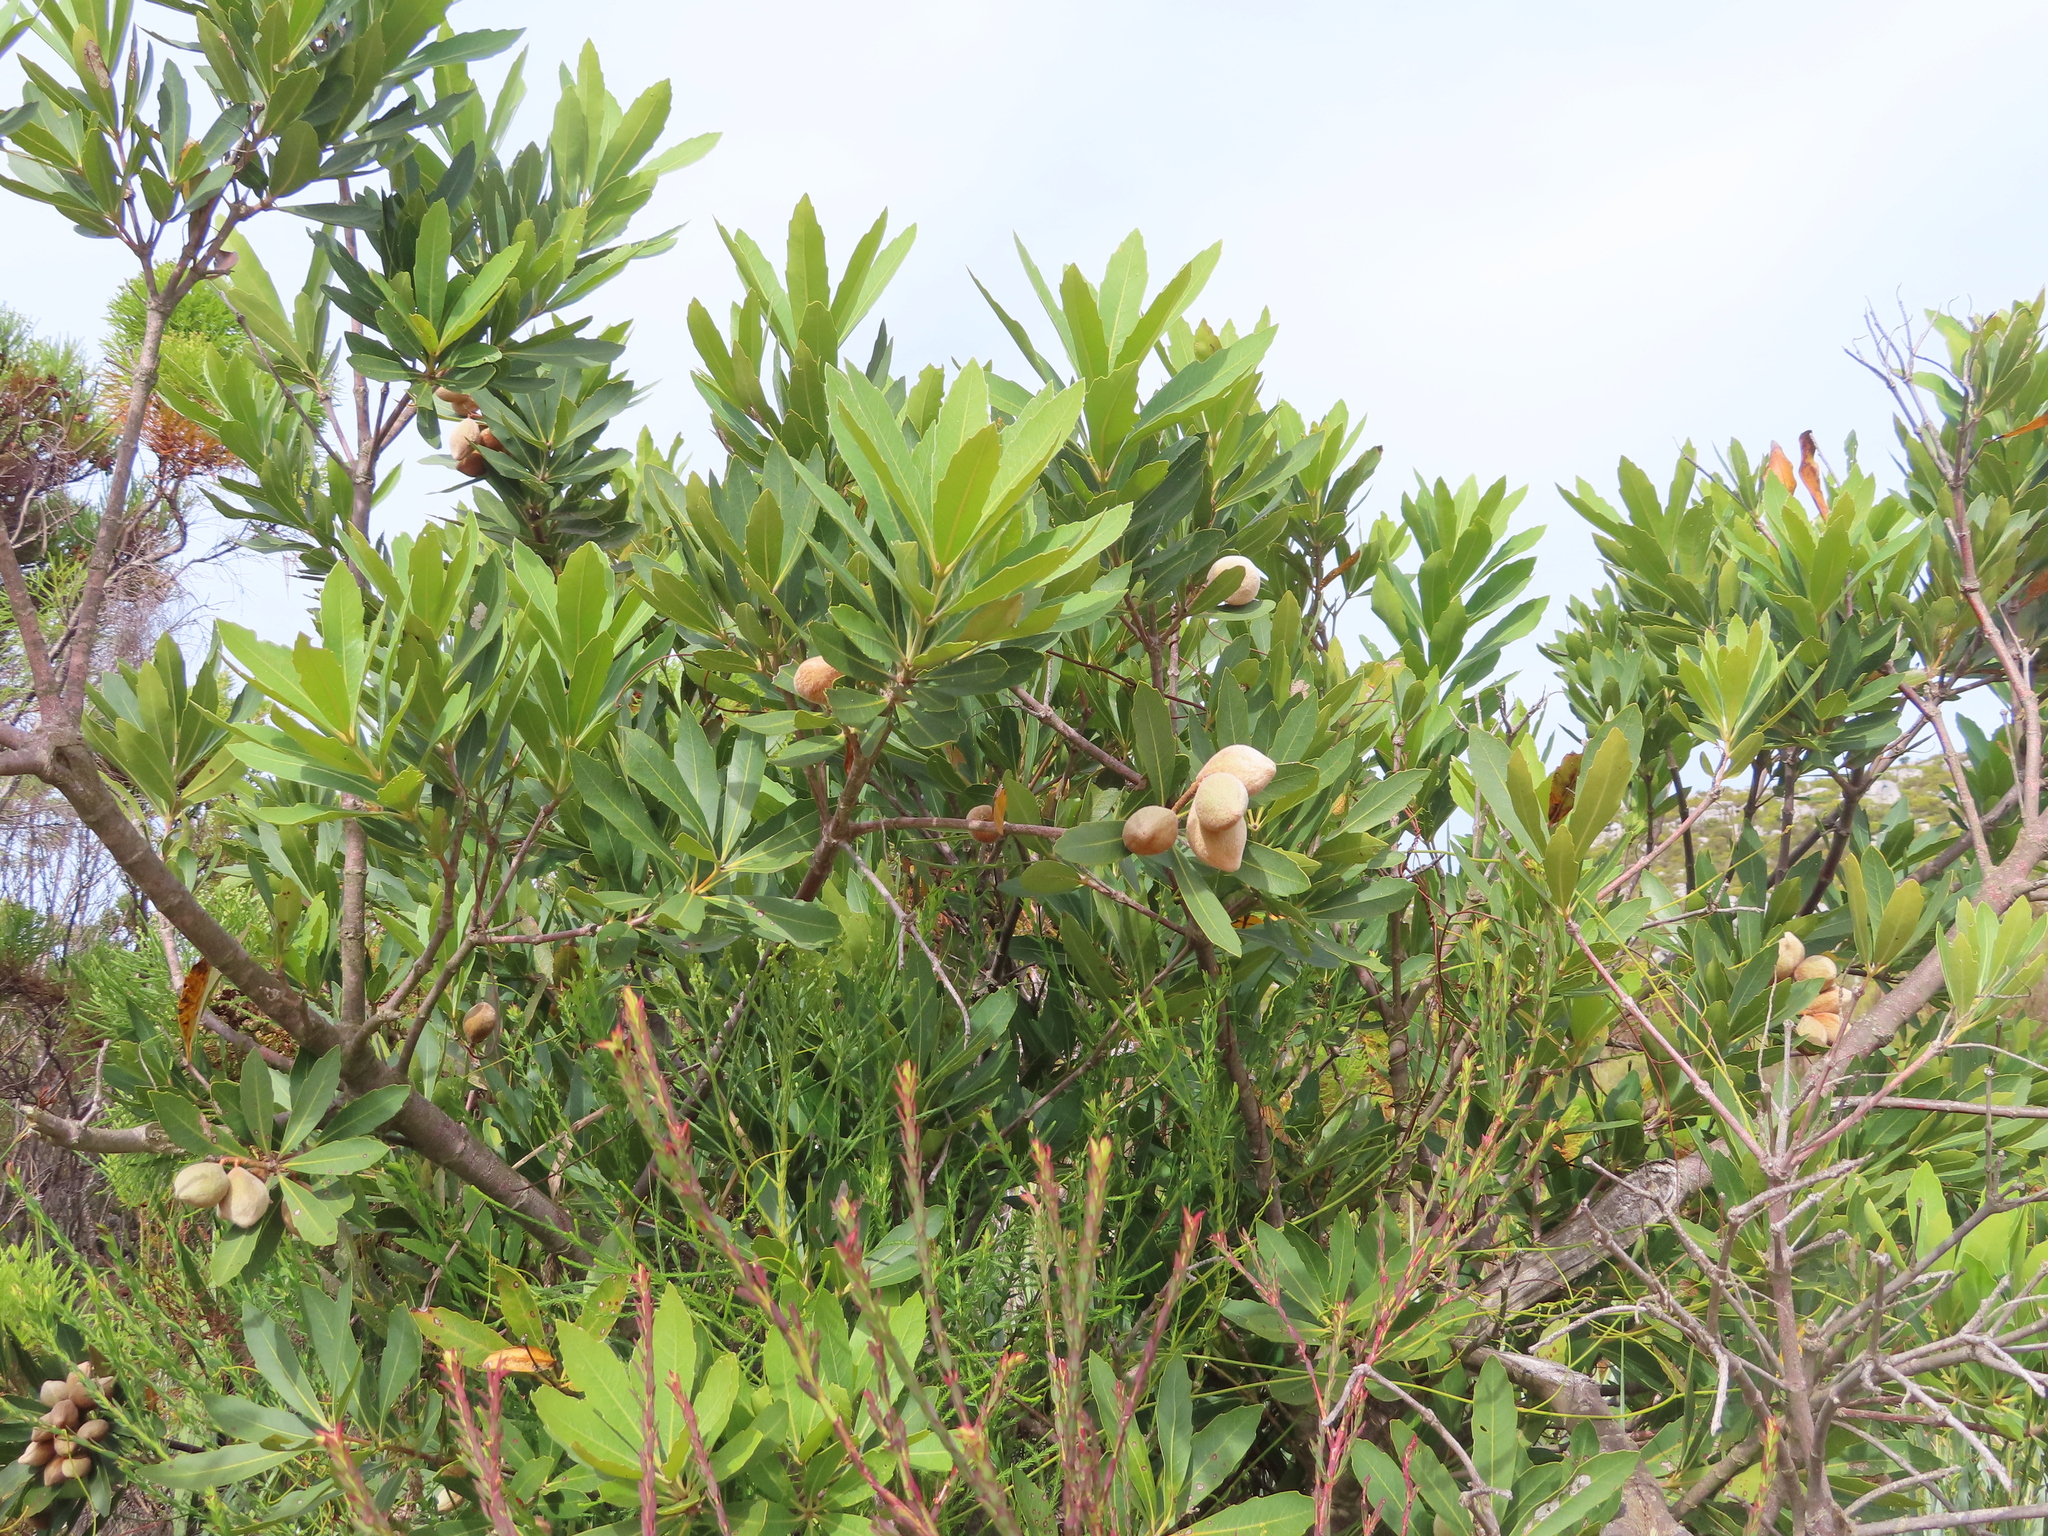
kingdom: Plantae
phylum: Tracheophyta
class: Magnoliopsida
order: Proteales
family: Proteaceae
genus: Brabejum
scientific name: Brabejum stellatifolium
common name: Wild almond
